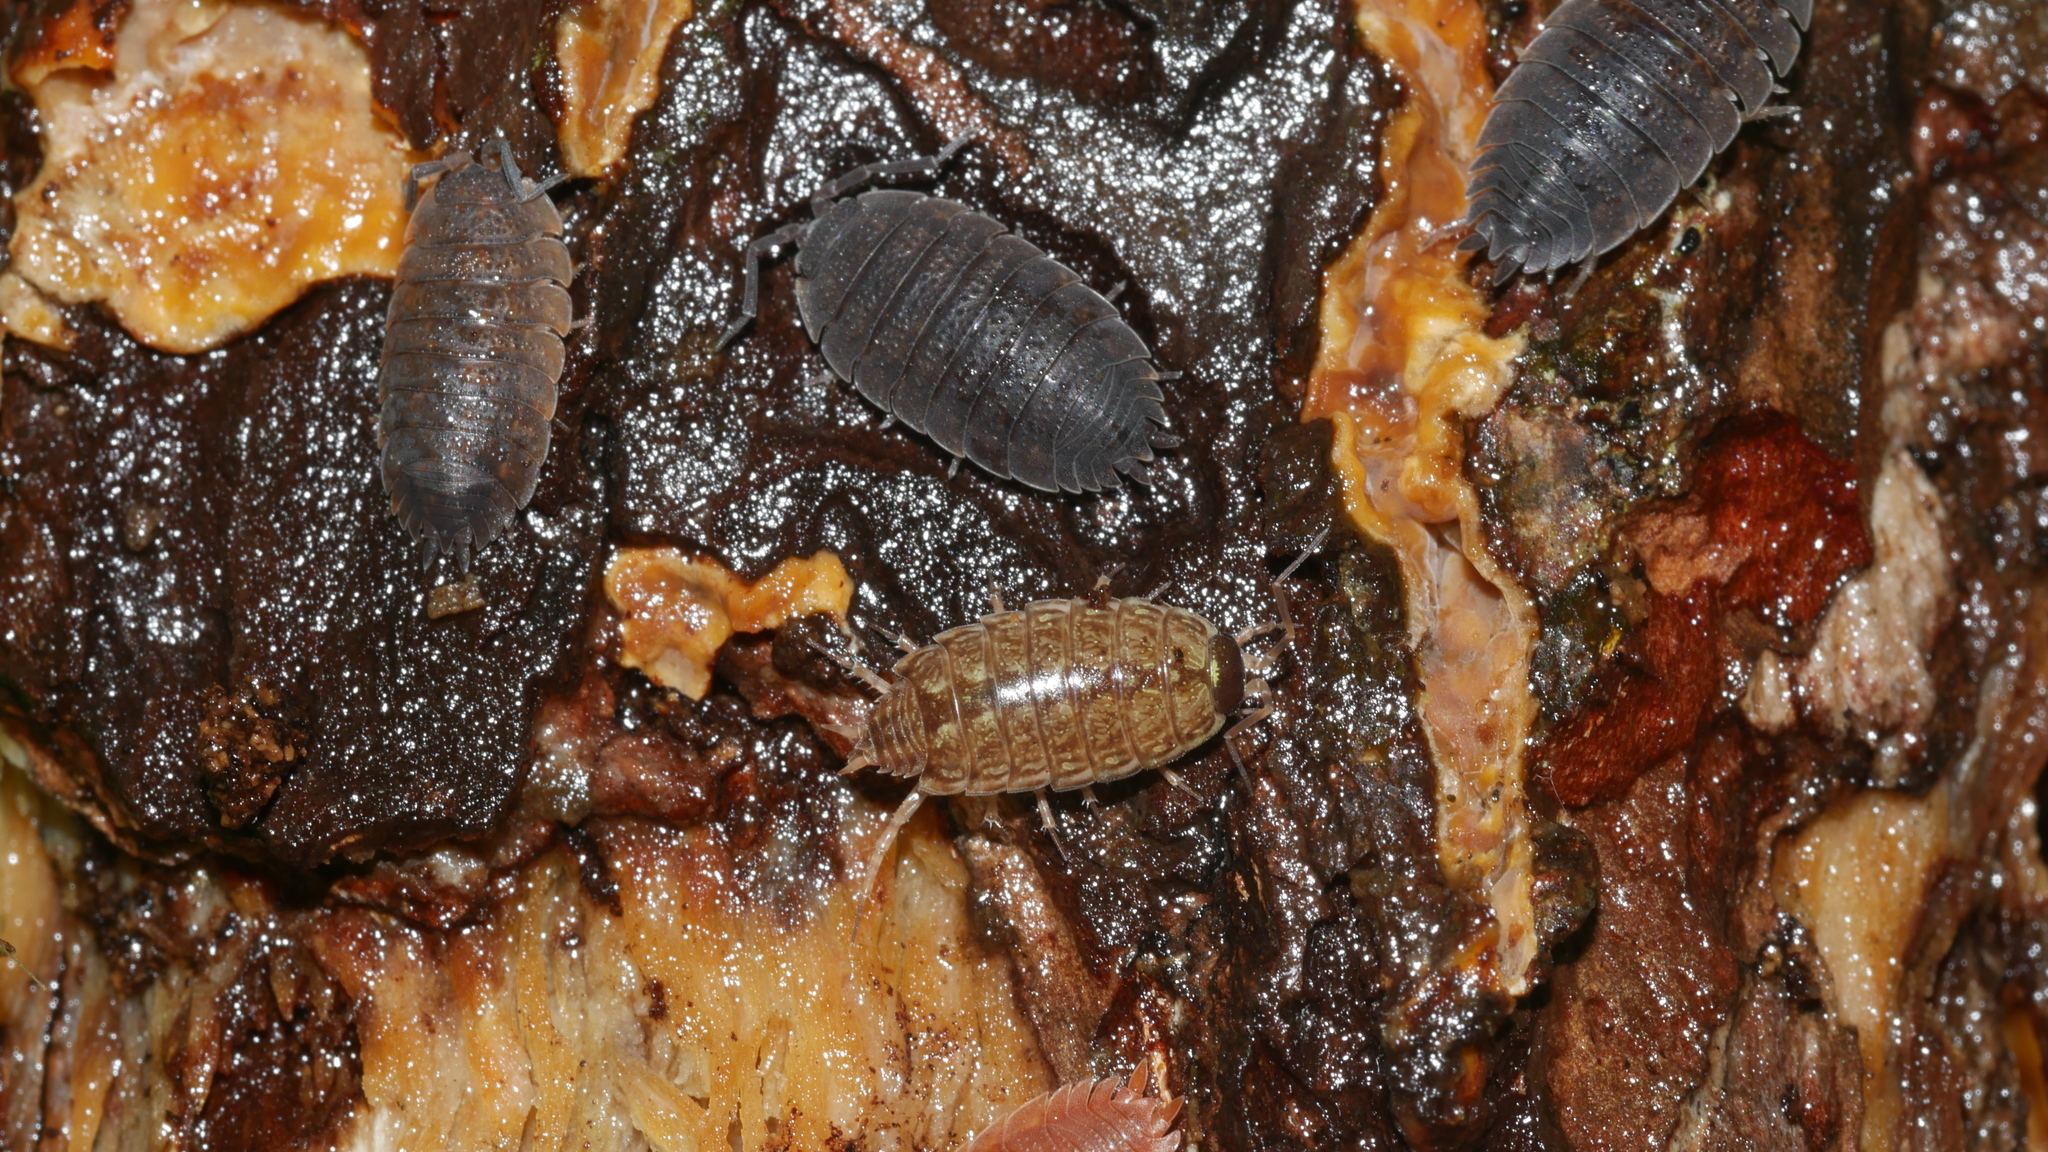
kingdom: Animalia
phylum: Arthropoda
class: Malacostraca
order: Isopoda
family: Porcellionidae
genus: Porcellio
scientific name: Porcellio scaber
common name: Common rough woodlouse
